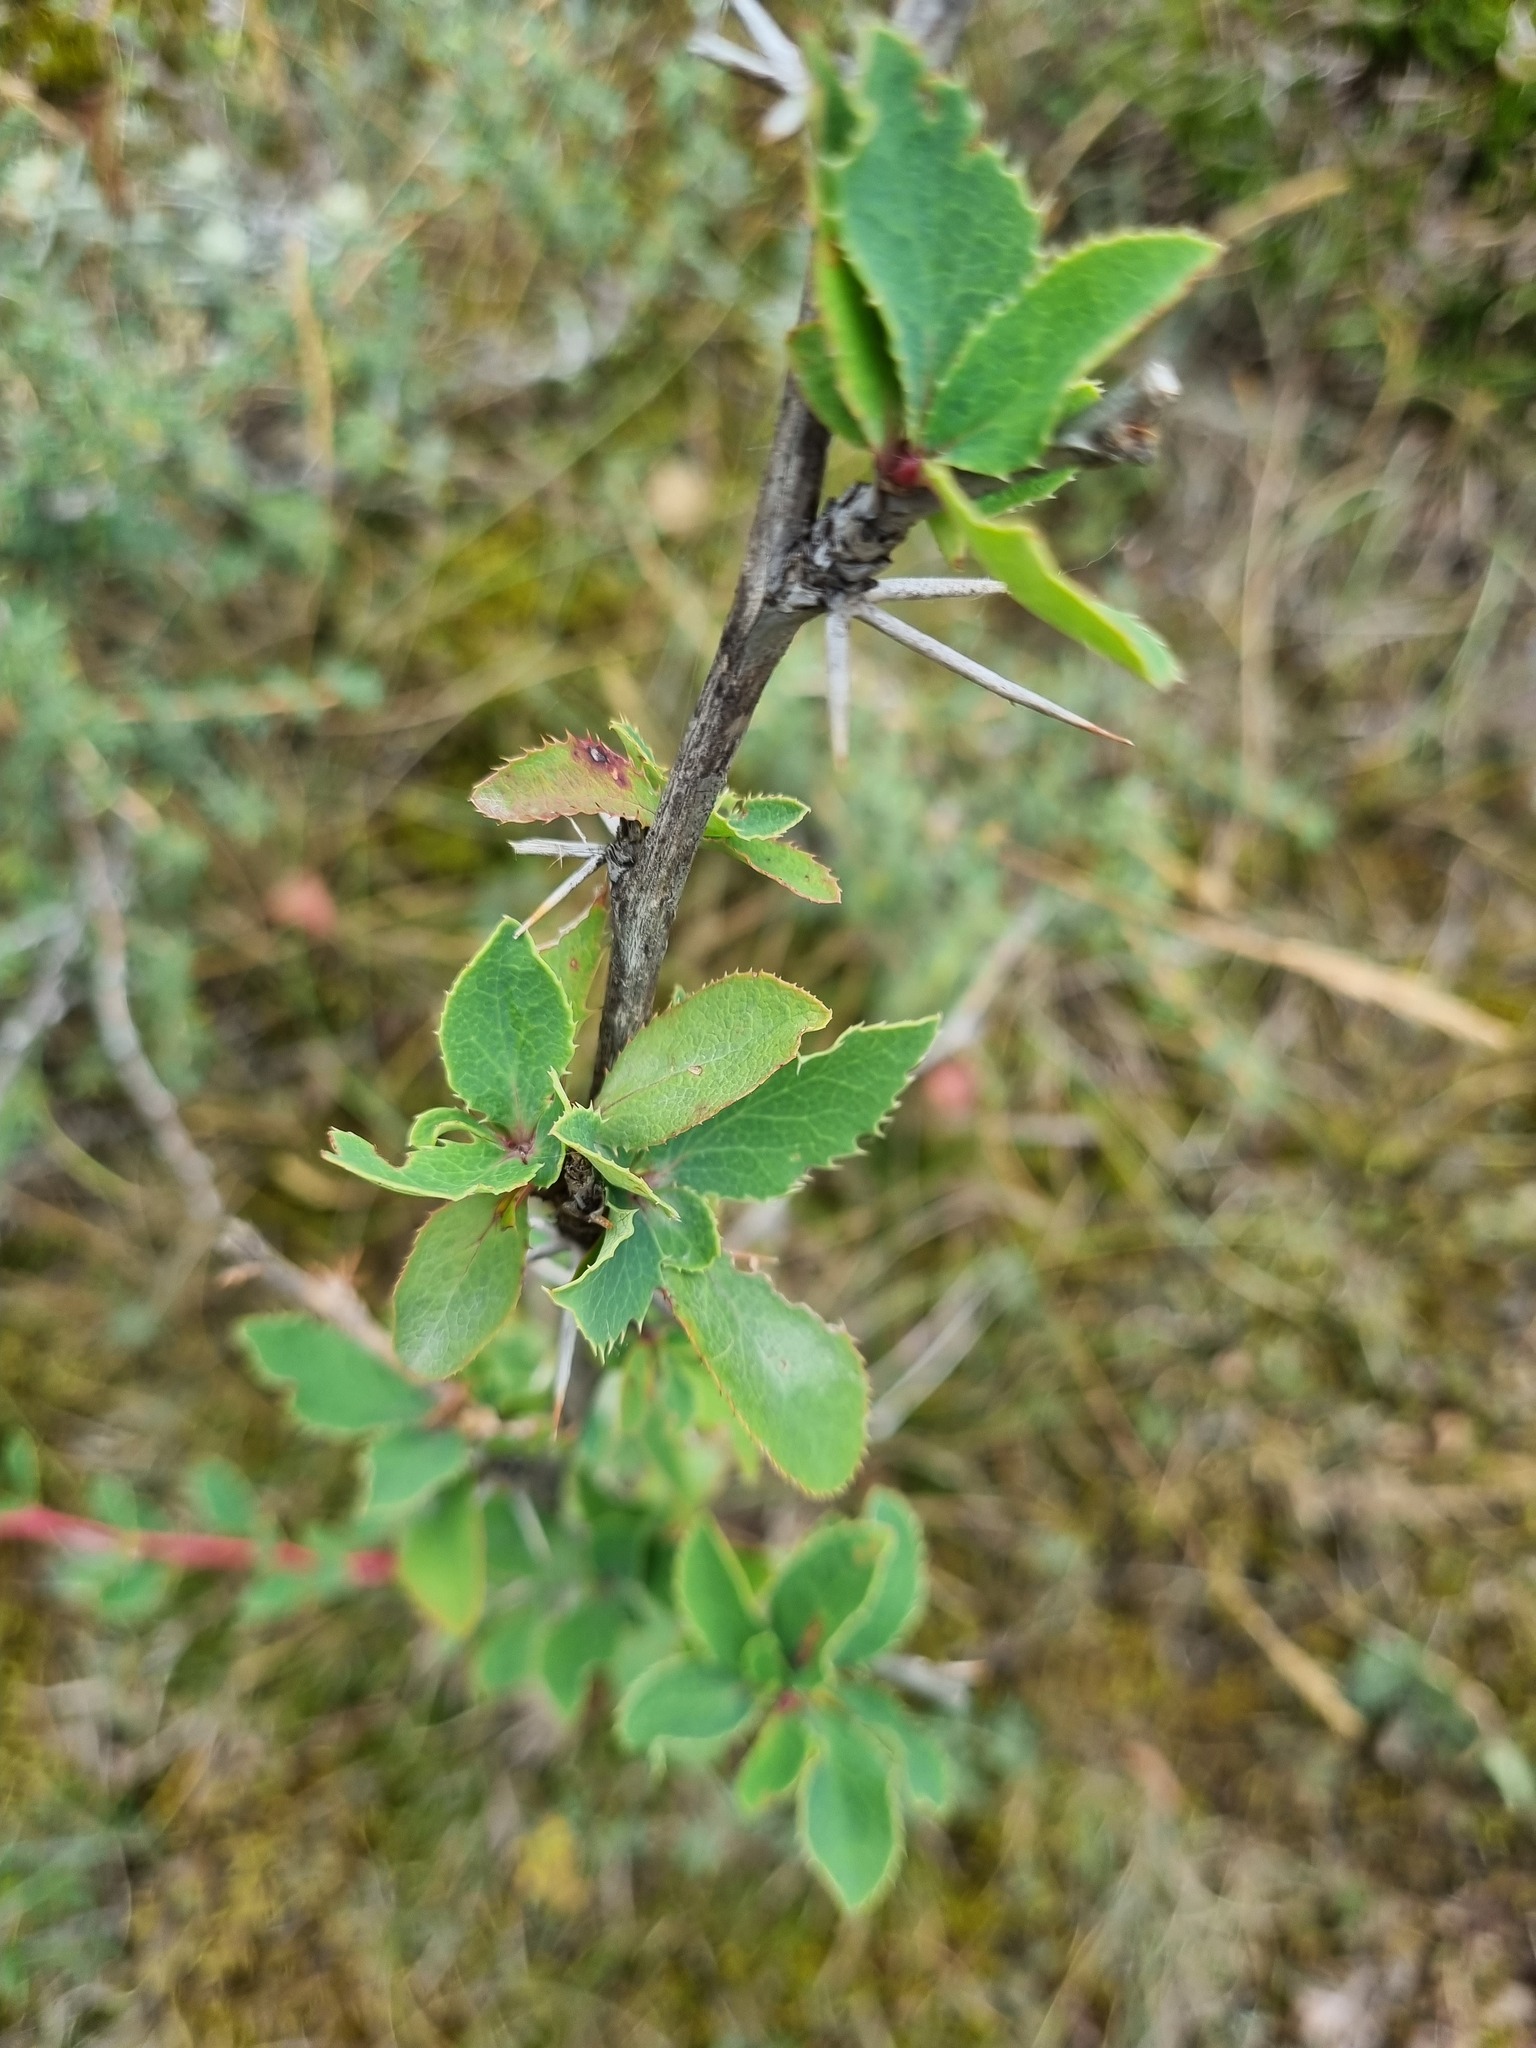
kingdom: Plantae
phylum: Tracheophyta
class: Magnoliopsida
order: Ranunculales
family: Berberidaceae
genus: Berberis
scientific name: Berberis vulgaris
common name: Barberry
